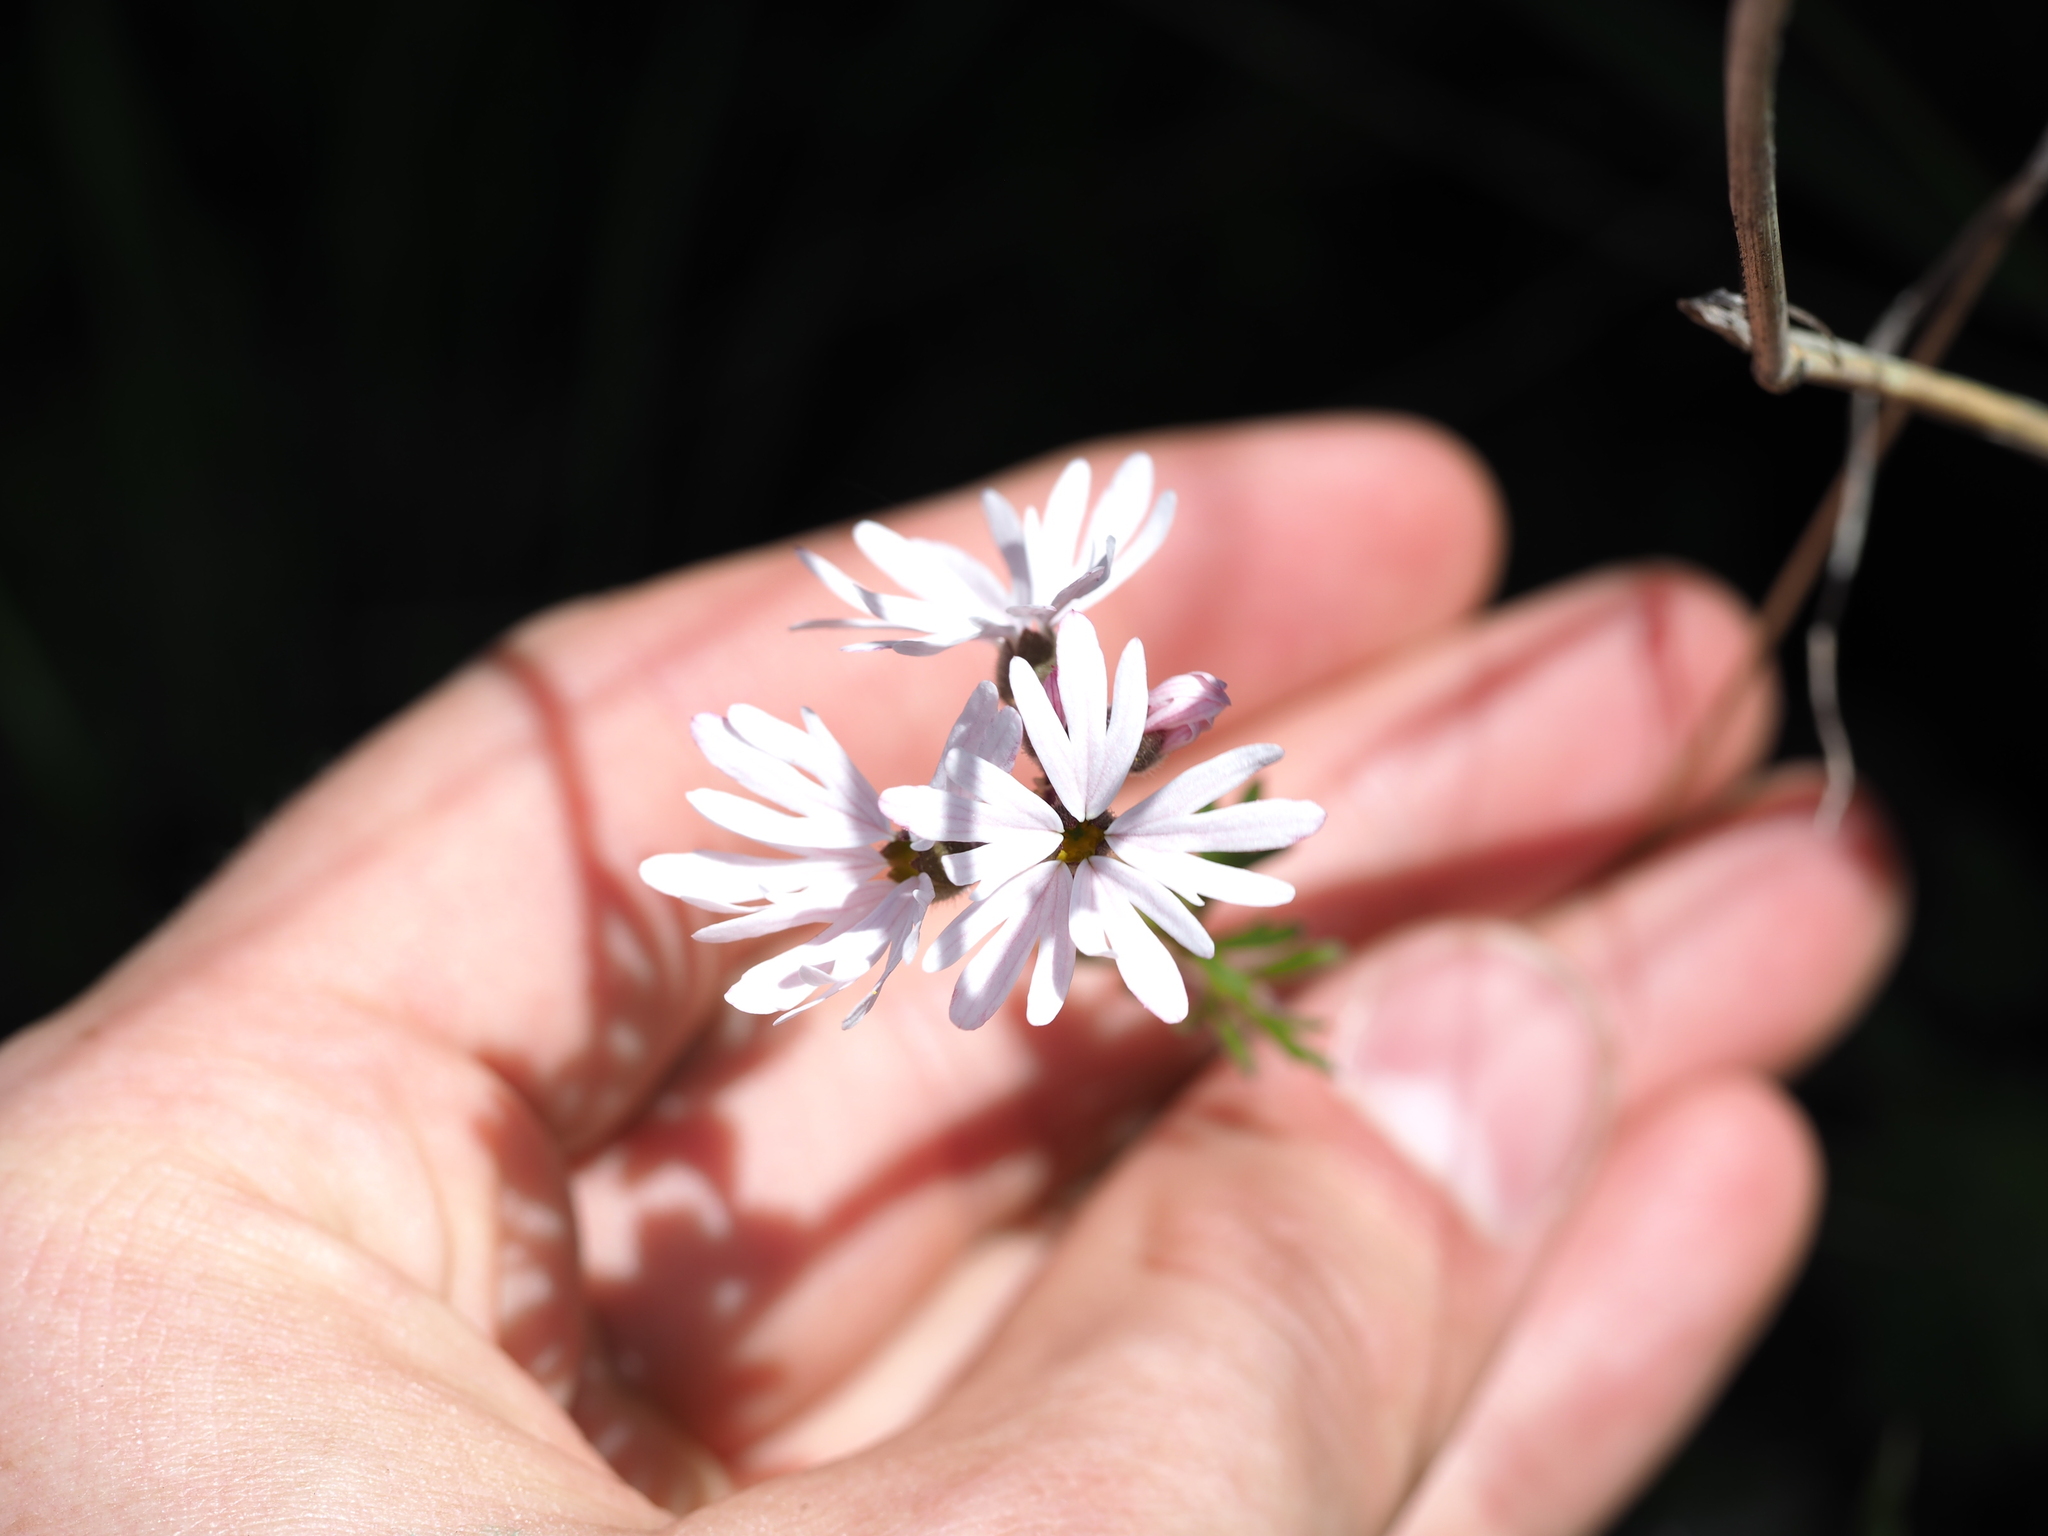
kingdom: Plantae
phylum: Tracheophyta
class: Magnoliopsida
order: Saxifragales
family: Saxifragaceae
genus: Lithophragma
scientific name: Lithophragma parviflorum
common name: Small-flowered fringe-cup
